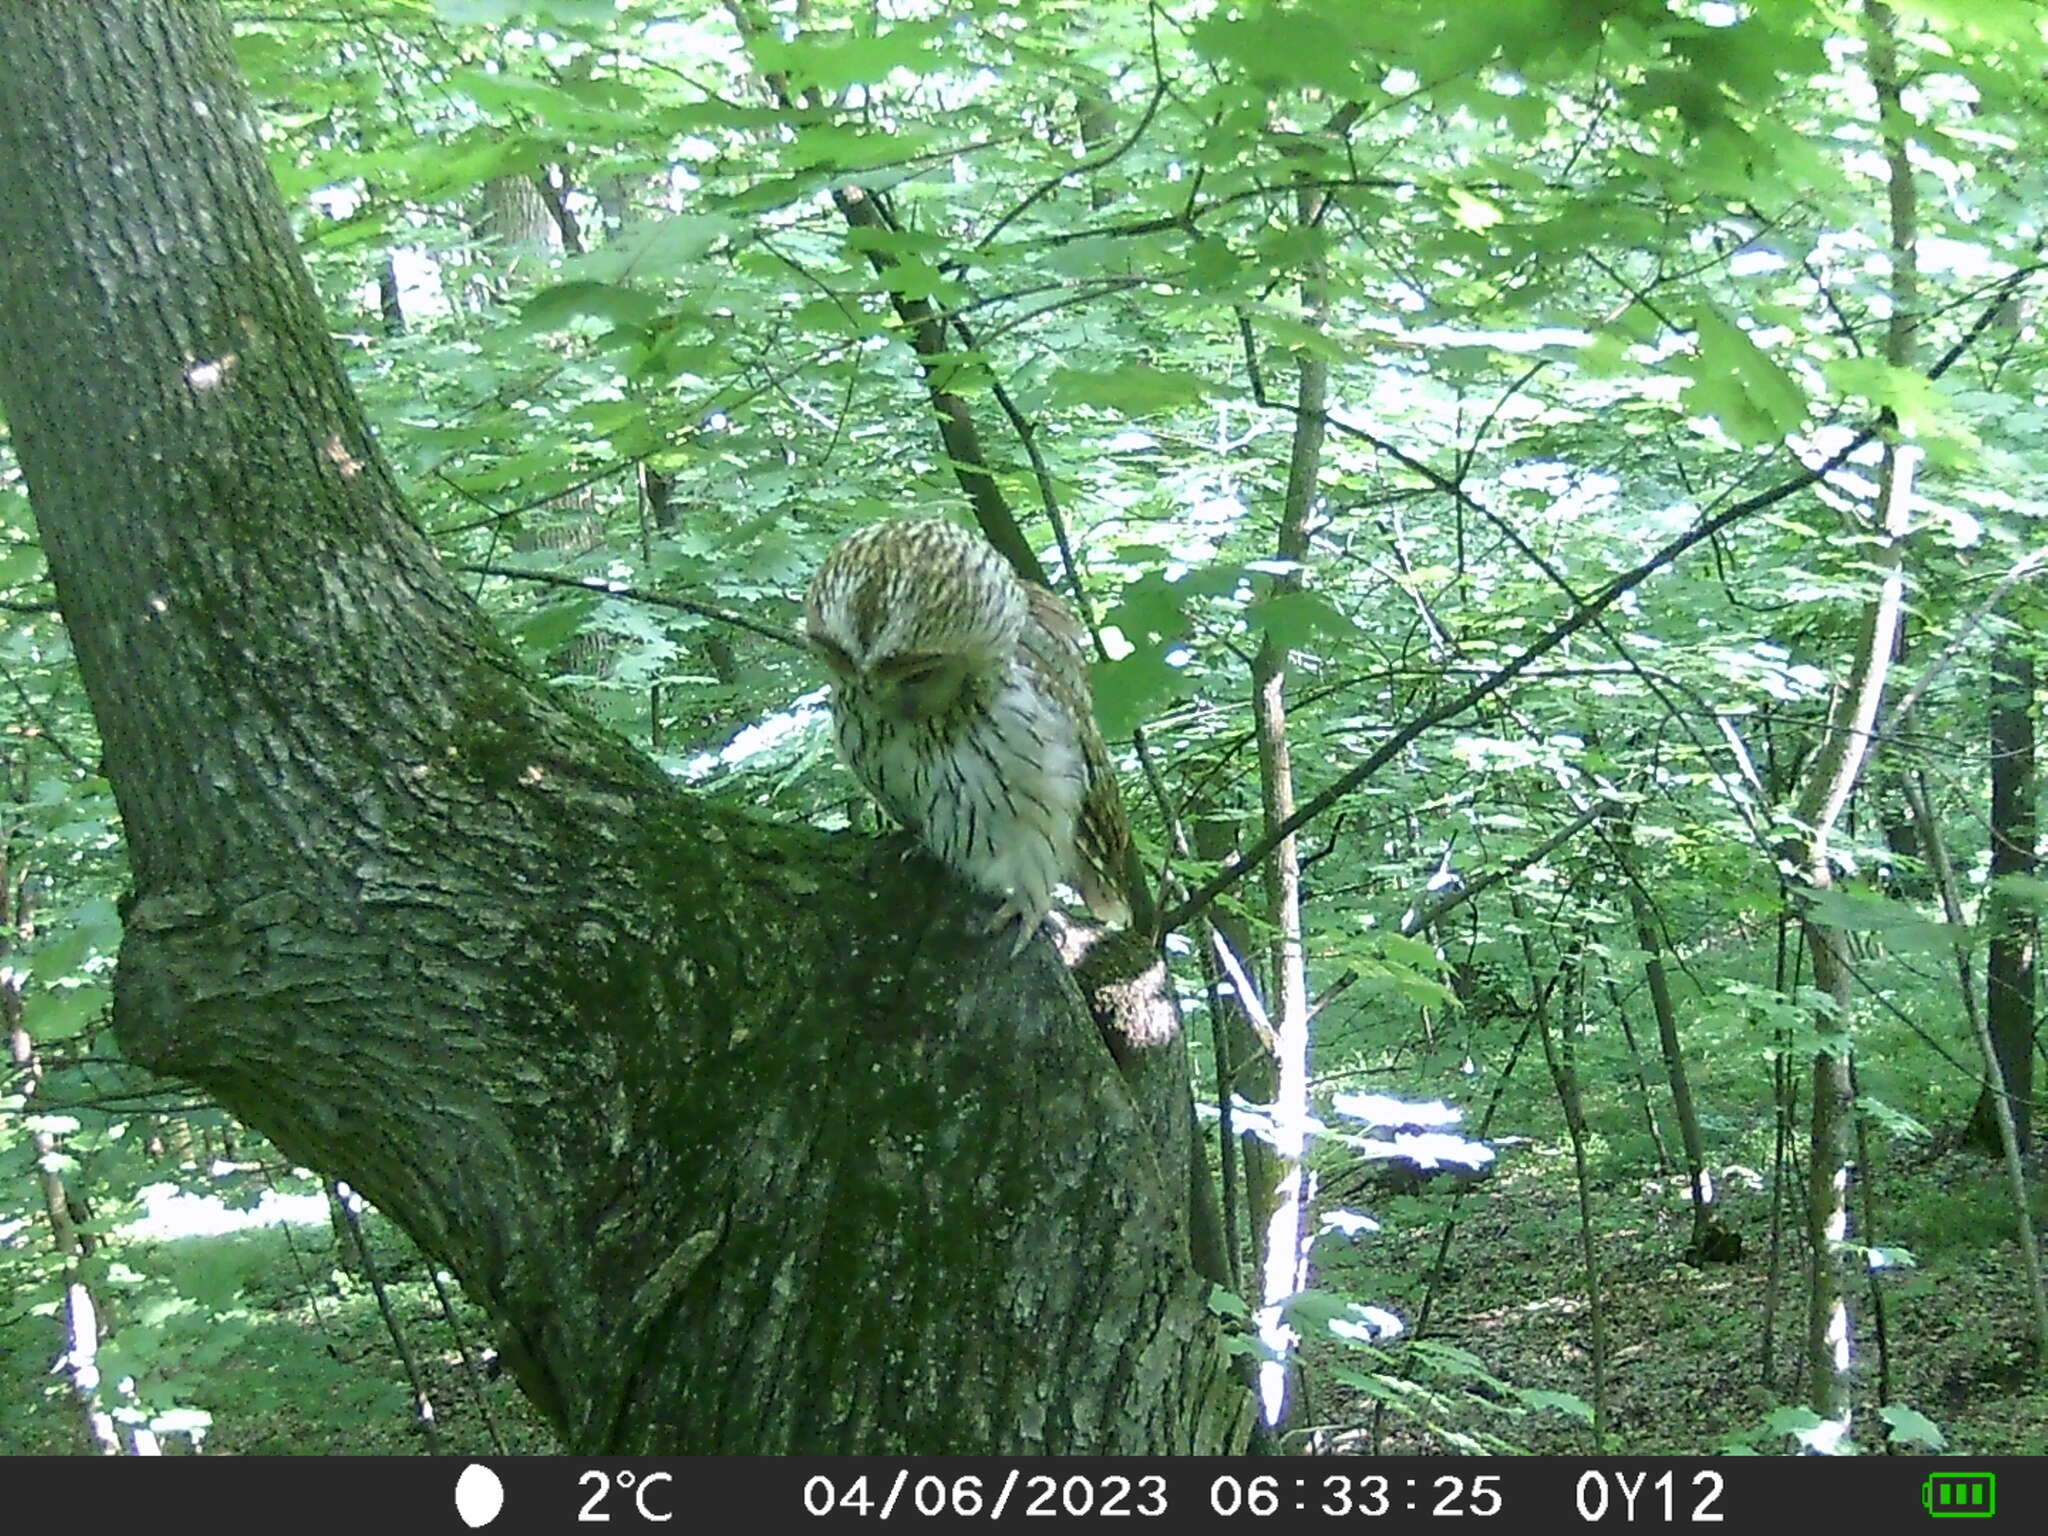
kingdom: Animalia
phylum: Chordata
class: Aves
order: Strigiformes
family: Strigidae
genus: Strix
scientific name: Strix aluco
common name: Tawny owl
